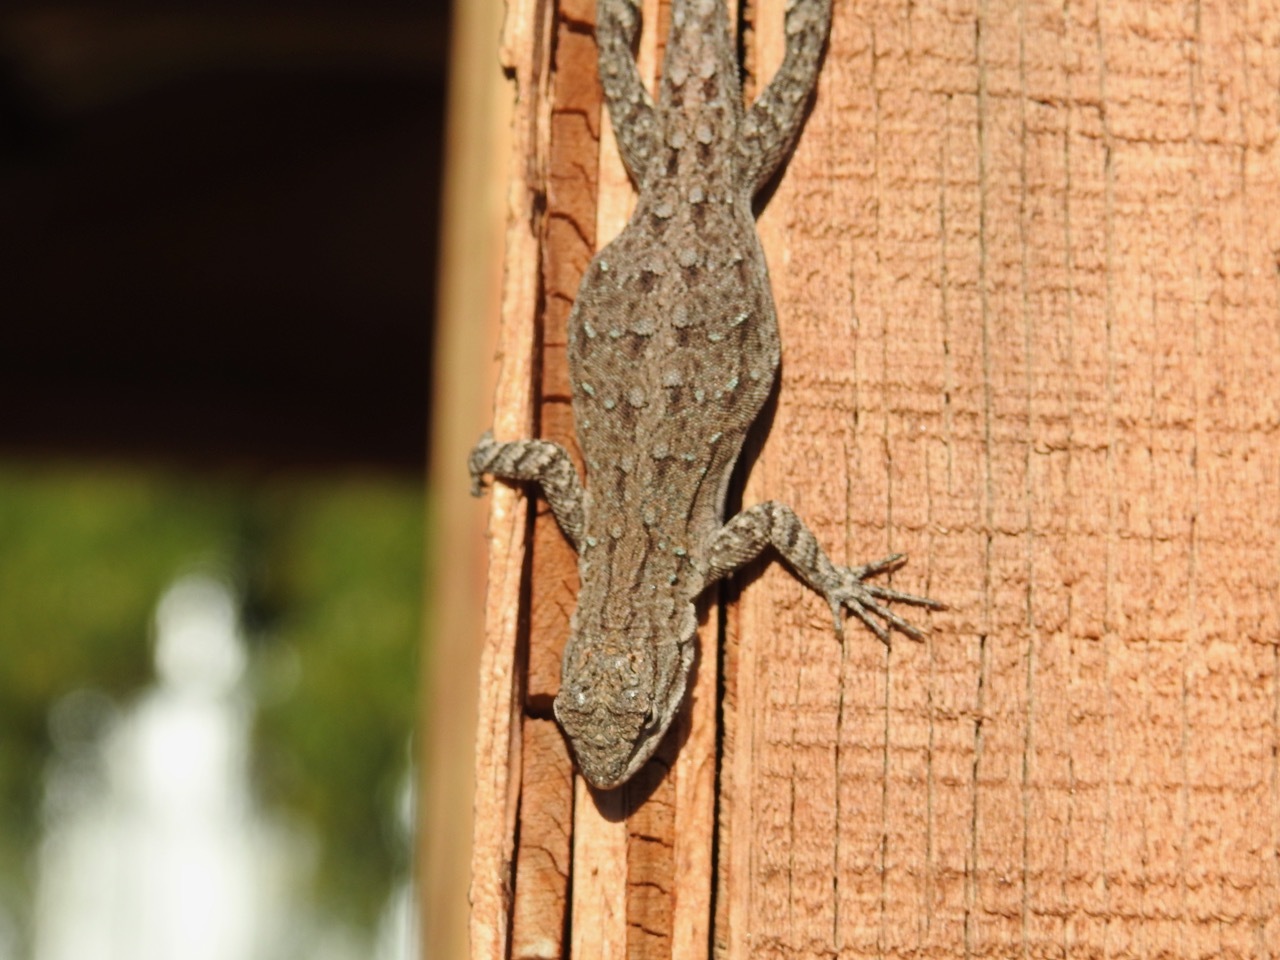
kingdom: Animalia
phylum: Chordata
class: Squamata
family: Phrynosomatidae
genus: Urosaurus
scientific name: Urosaurus nigricauda
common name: Baja california brush lizard
